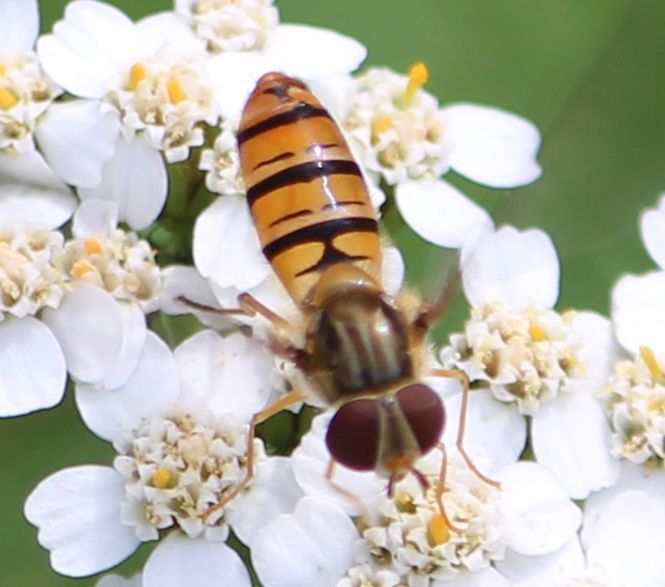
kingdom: Animalia
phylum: Arthropoda
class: Insecta
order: Diptera
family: Syrphidae
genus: Episyrphus
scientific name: Episyrphus balteatus
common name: Marmalade hoverfly
